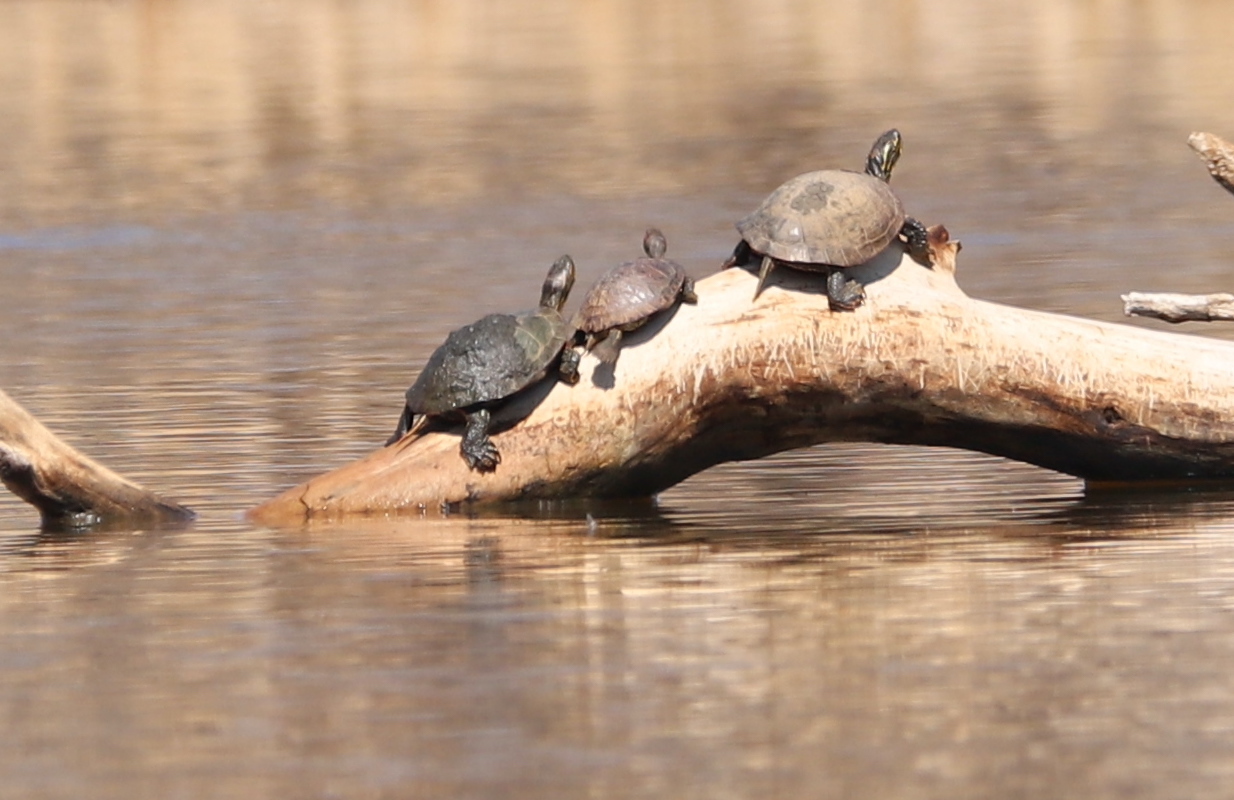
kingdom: Animalia
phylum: Chordata
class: Testudines
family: Emydidae
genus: Chrysemys
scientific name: Chrysemys picta
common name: Painted turtle
